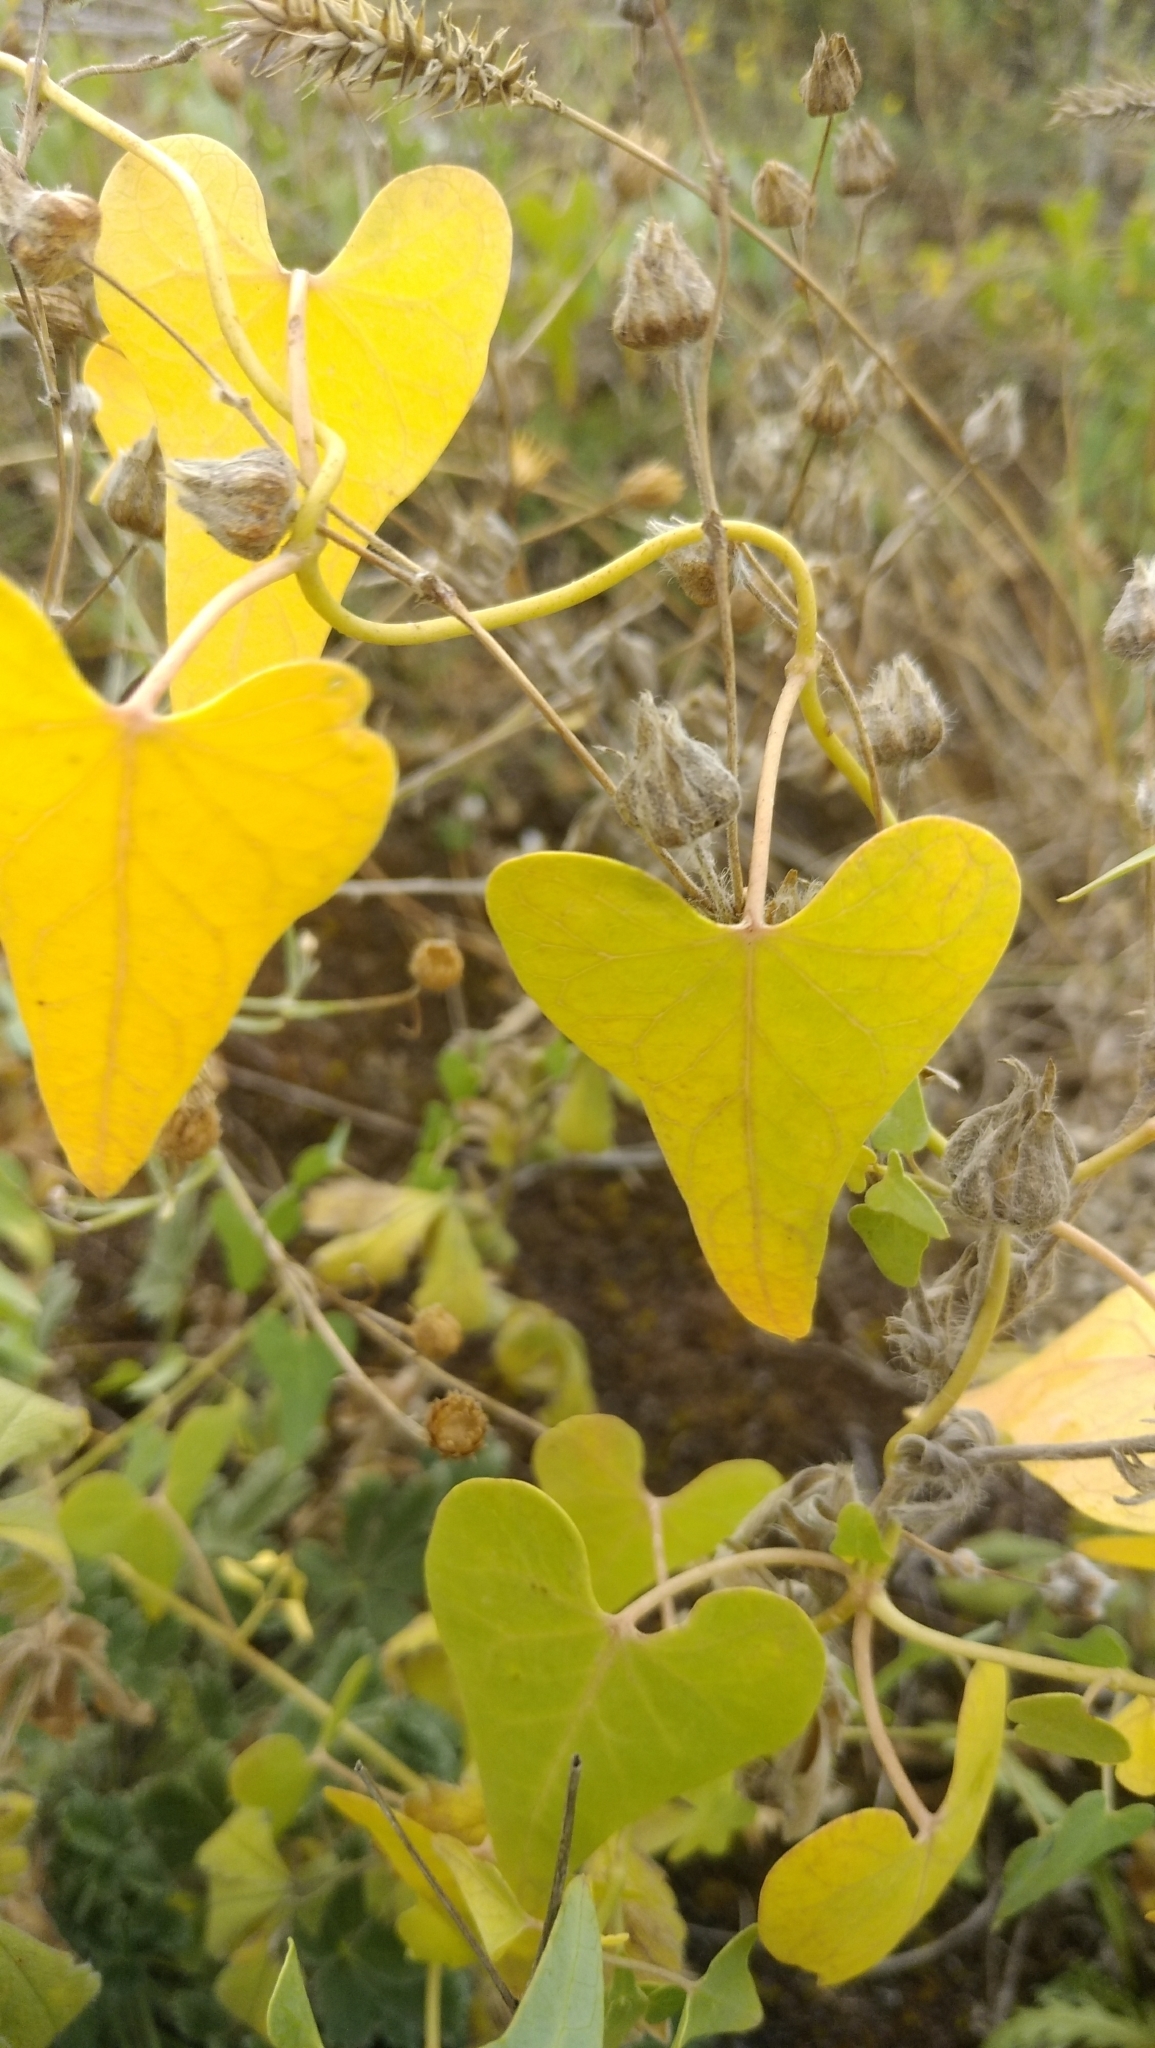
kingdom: Plantae
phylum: Tracheophyta
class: Magnoliopsida
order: Gentianales
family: Apocynaceae
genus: Cynanchum
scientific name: Cynanchum acutum
